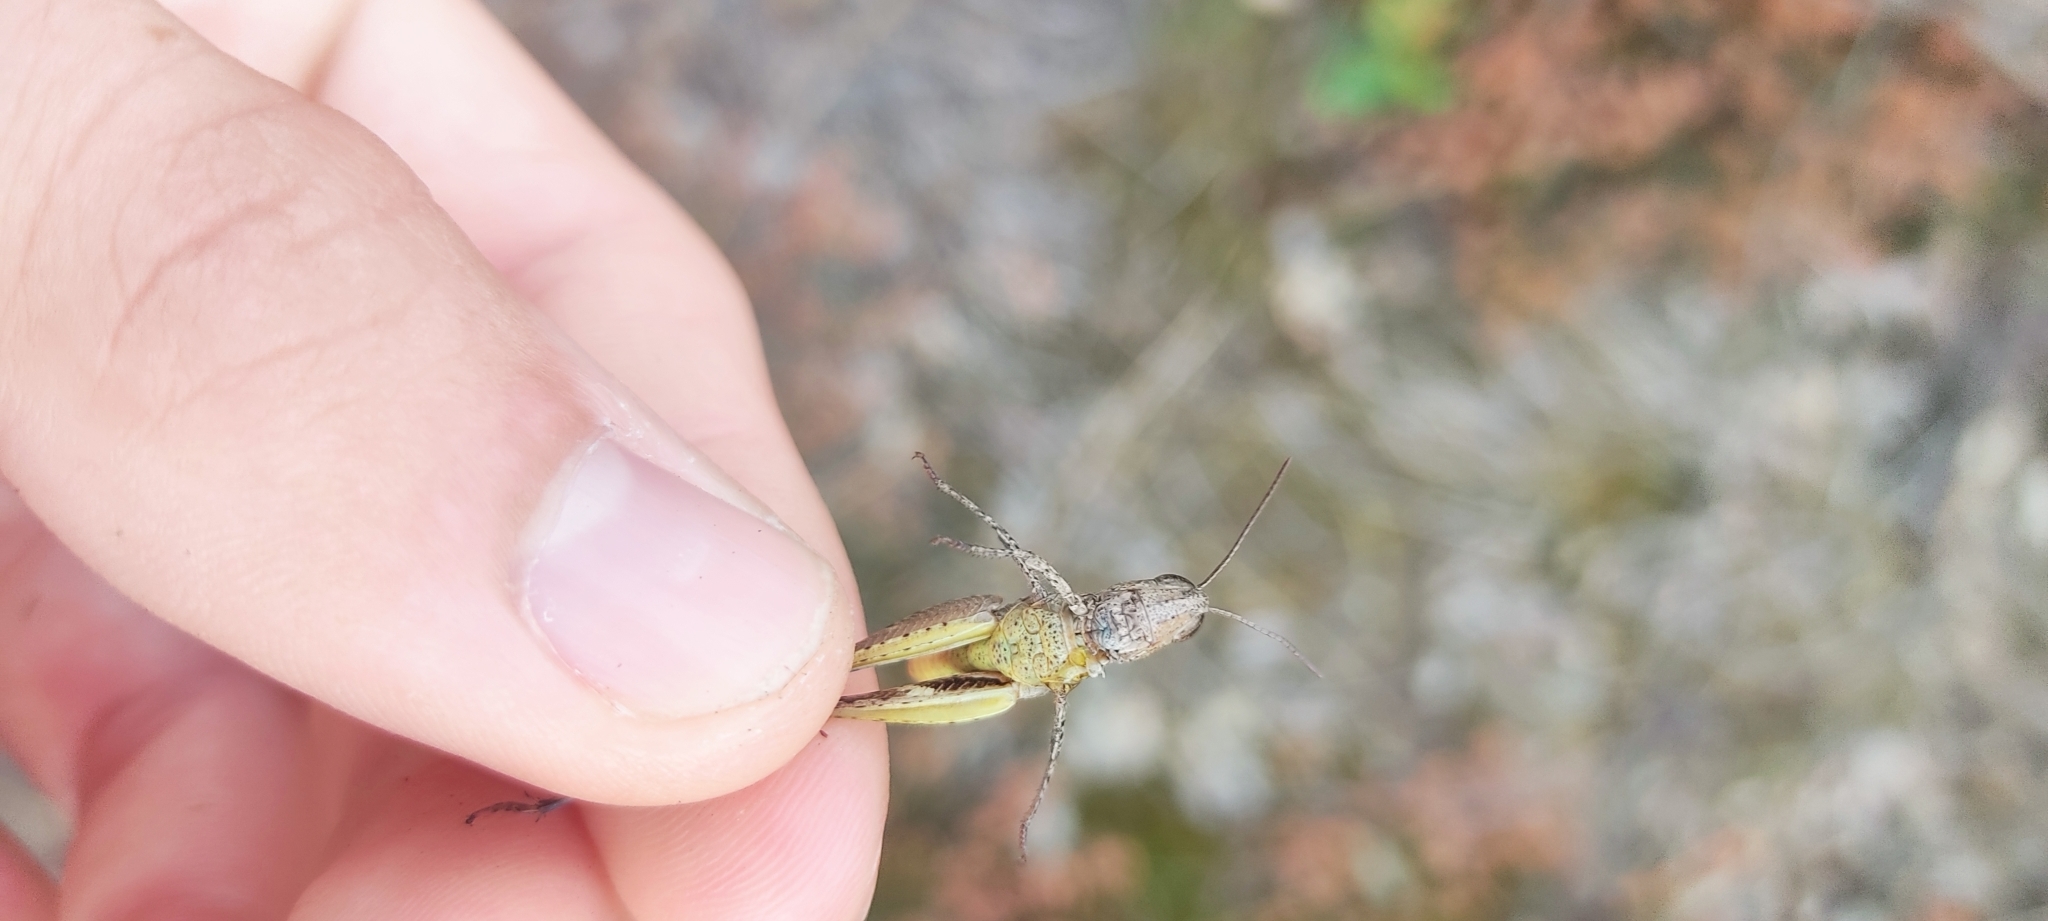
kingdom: Animalia
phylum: Arthropoda
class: Insecta
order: Orthoptera
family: Acrididae
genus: Chorthippus
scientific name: Chorthippus vagans
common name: Heath grasshopper
